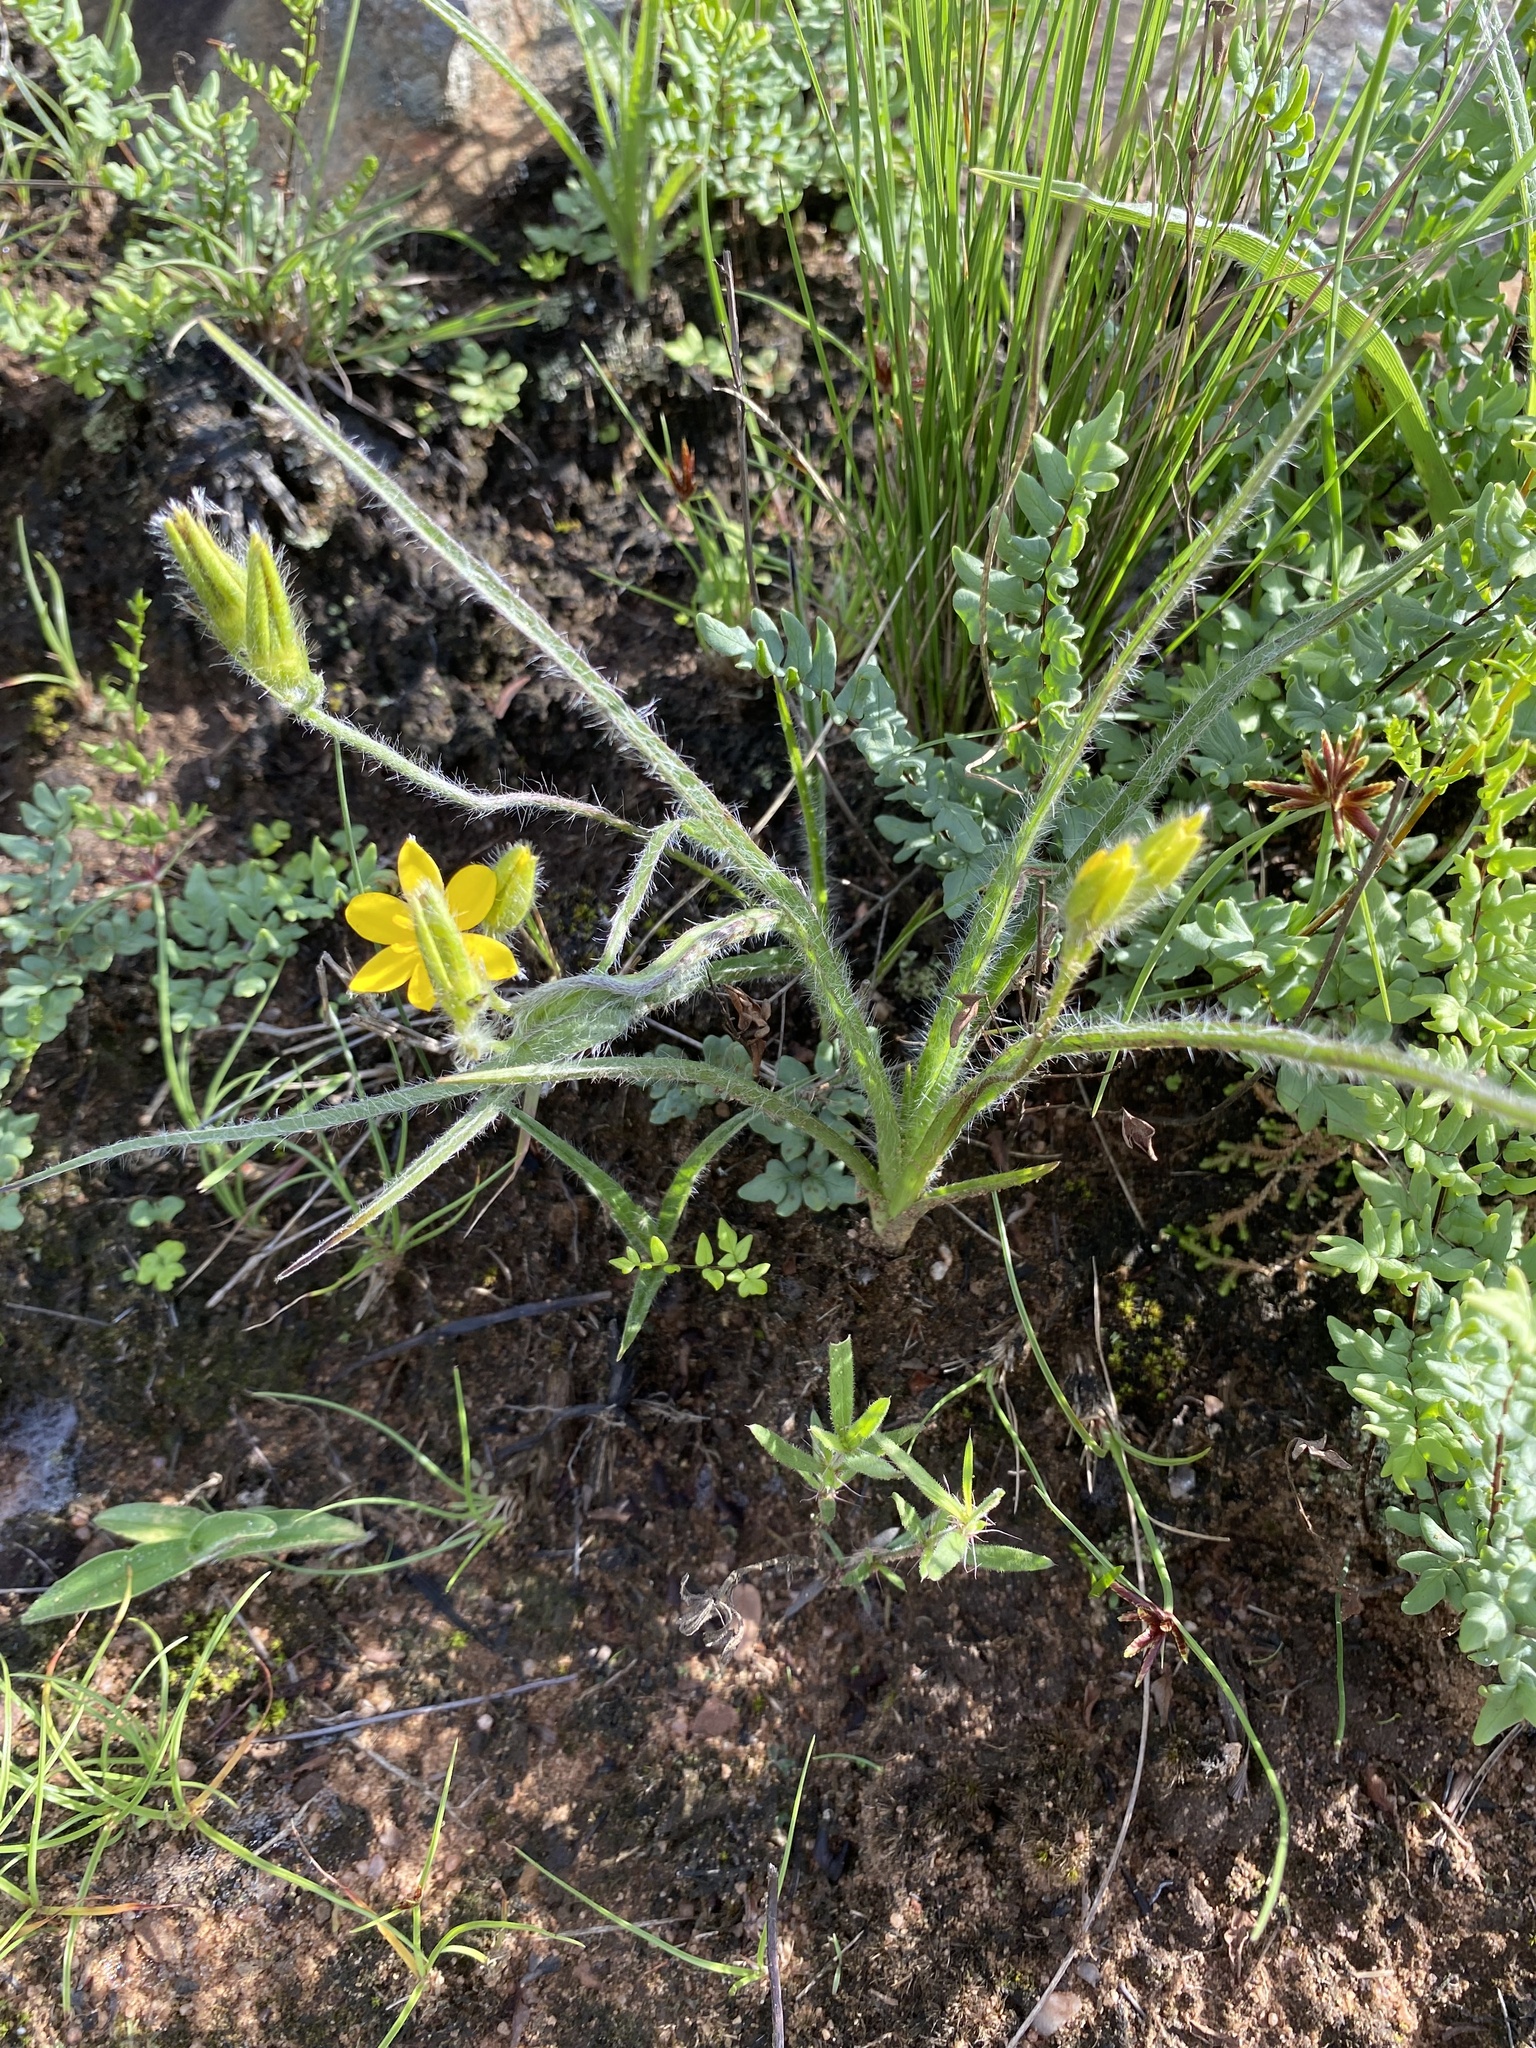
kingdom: Plantae
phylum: Tracheophyta
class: Liliopsida
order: Asparagales
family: Hypoxidaceae
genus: Hypoxis
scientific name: Hypoxis rigidula
